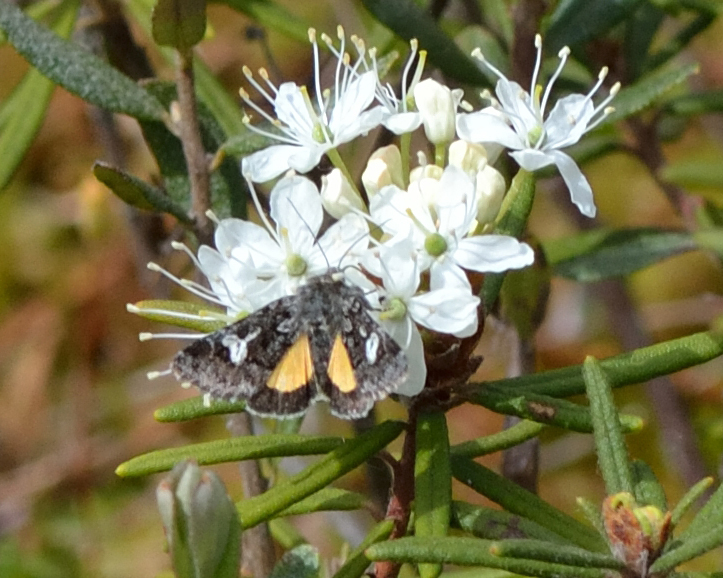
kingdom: Animalia
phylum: Arthropoda
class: Insecta
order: Lepidoptera
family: Noctuidae
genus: Coranarta
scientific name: Coranarta cordigera
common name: Small dark yellow underwing
